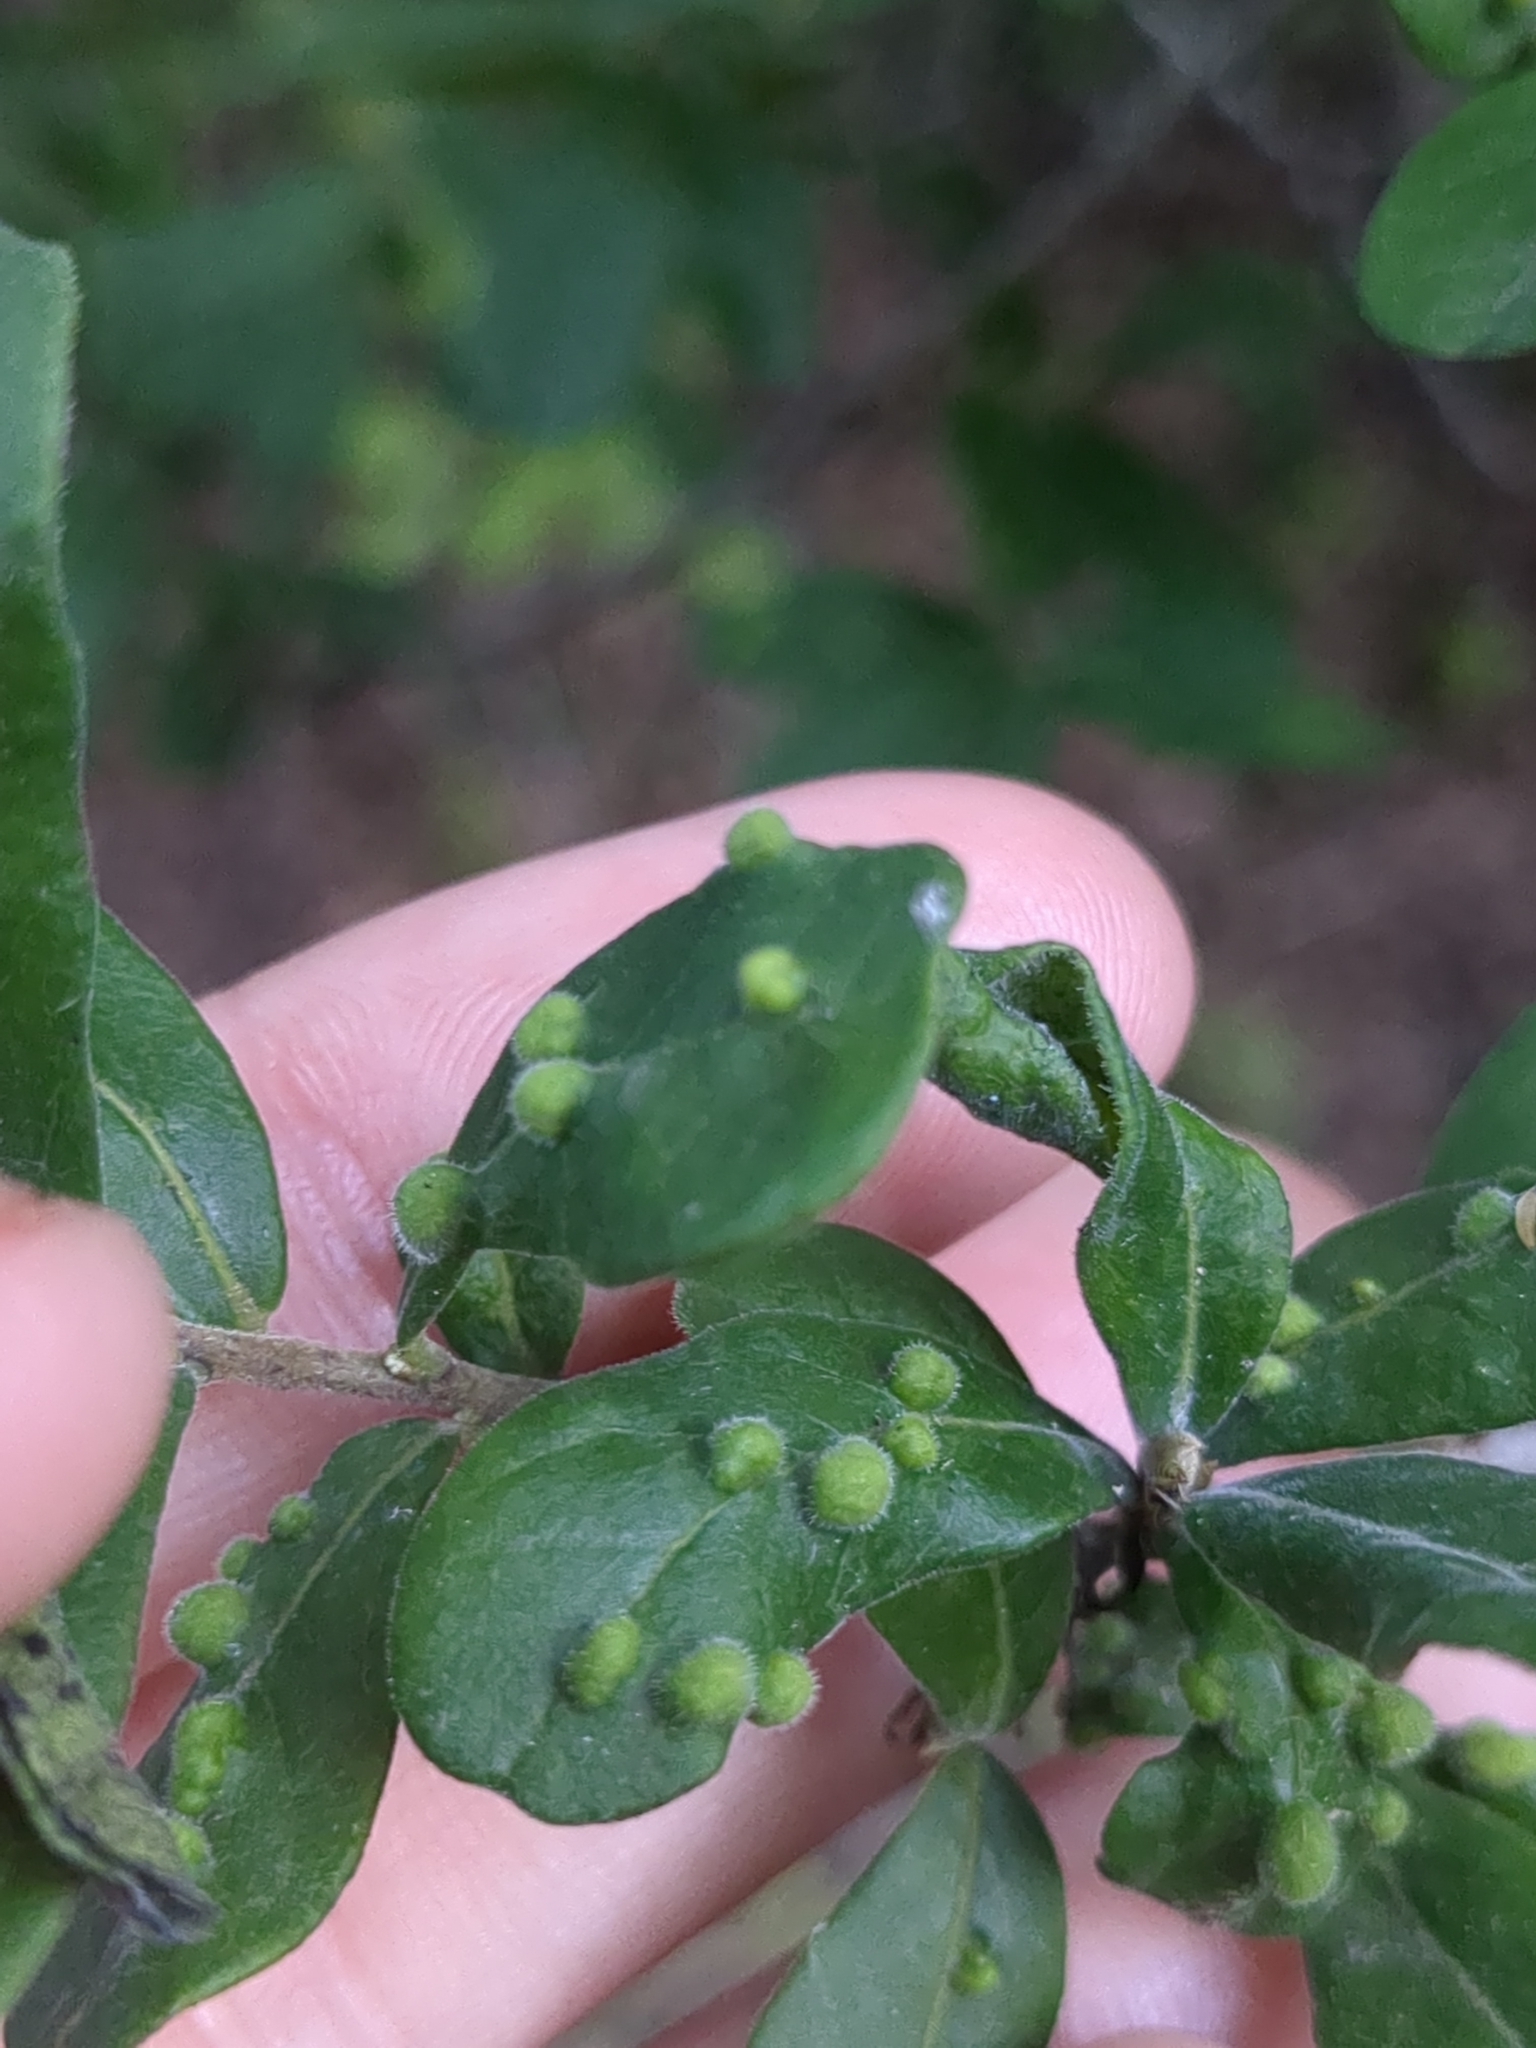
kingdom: Animalia
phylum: Arthropoda
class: Arachnida
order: Trombidiformes
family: Eriophyidae
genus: Aceria
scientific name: Aceria
